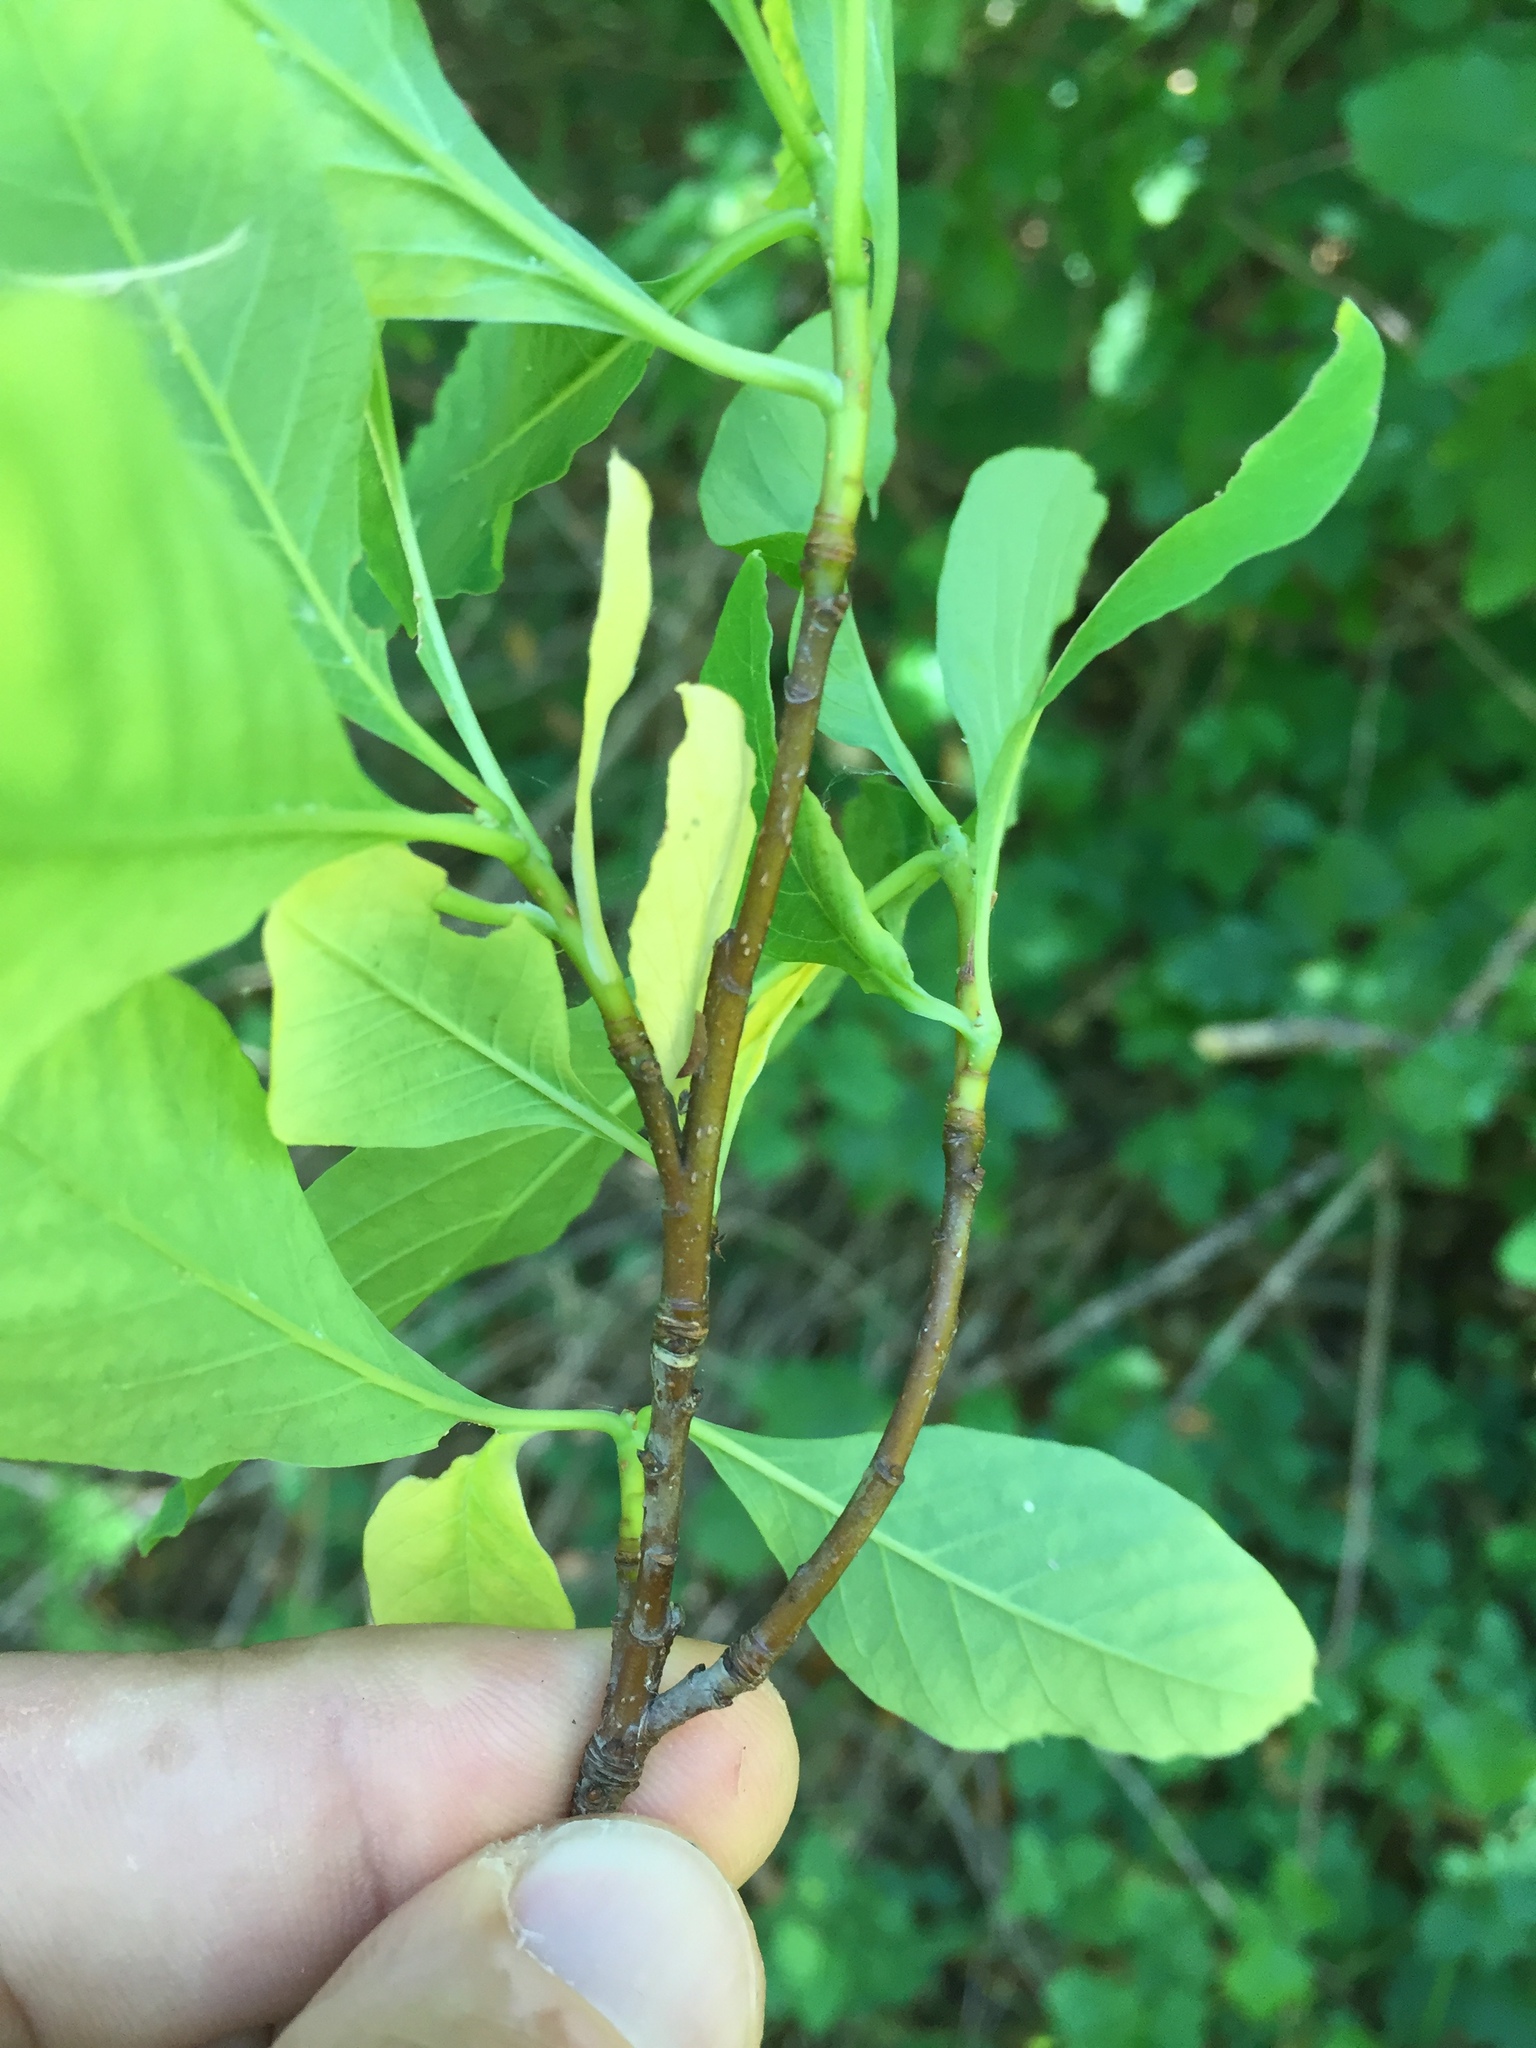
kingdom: Plantae
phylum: Tracheophyta
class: Magnoliopsida
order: Rosales
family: Rosaceae
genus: Oemleria
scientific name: Oemleria cerasiformis
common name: Osoberry
